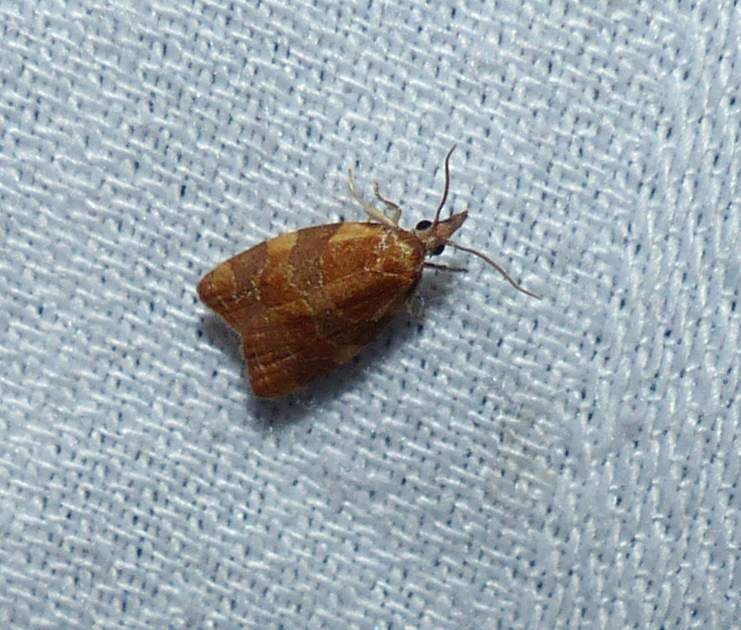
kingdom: Animalia
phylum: Arthropoda
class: Insecta
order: Lepidoptera
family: Tortricidae
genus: Cenopis
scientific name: Cenopis diluticostana
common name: Spring dead-leaf roller moth
